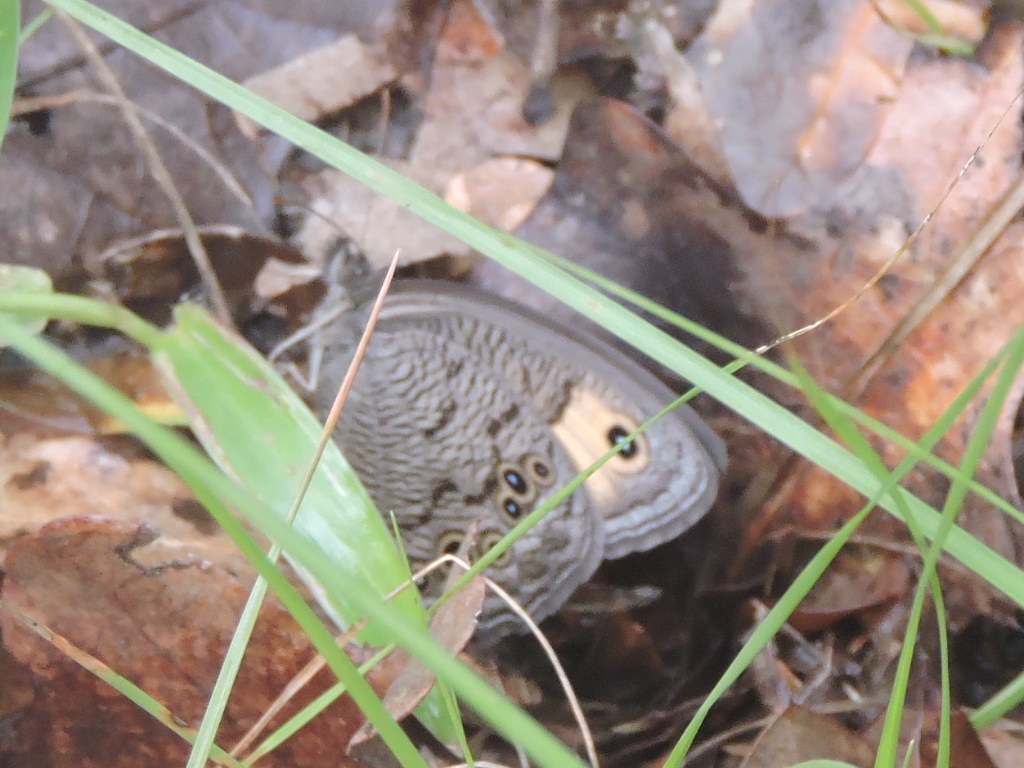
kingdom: Animalia
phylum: Arthropoda
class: Insecta
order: Lepidoptera
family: Nymphalidae
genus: Cercyonis
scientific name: Cercyonis pegala
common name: Common wood-nymph
